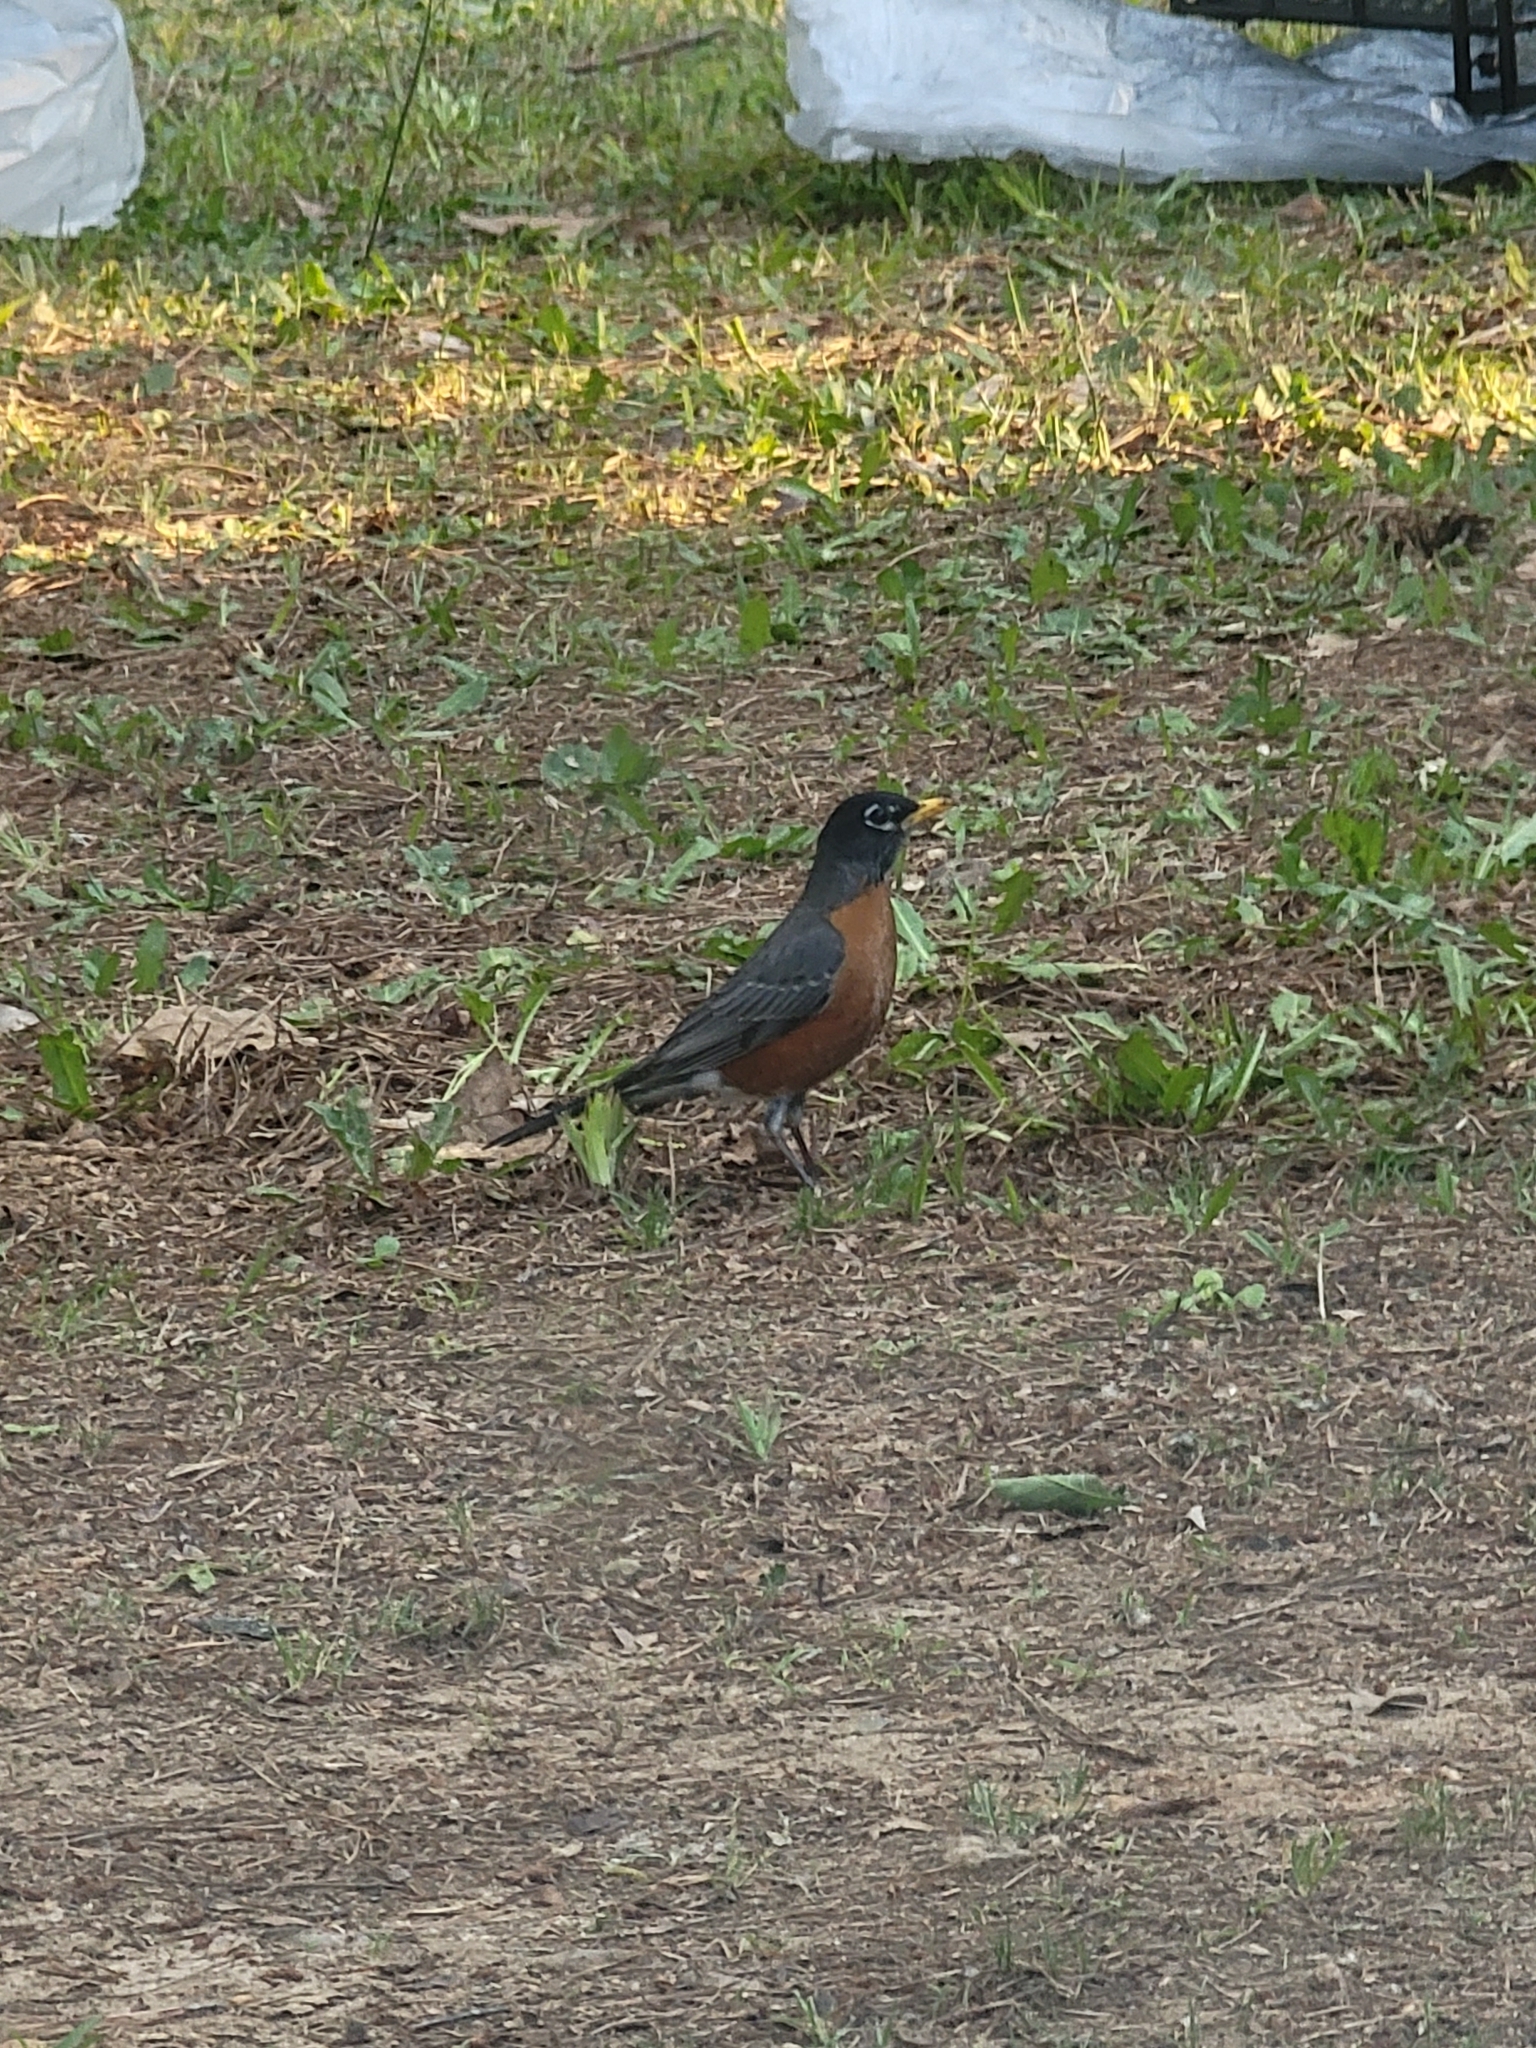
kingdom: Animalia
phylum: Chordata
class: Aves
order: Passeriformes
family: Turdidae
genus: Turdus
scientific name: Turdus migratorius
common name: American robin
